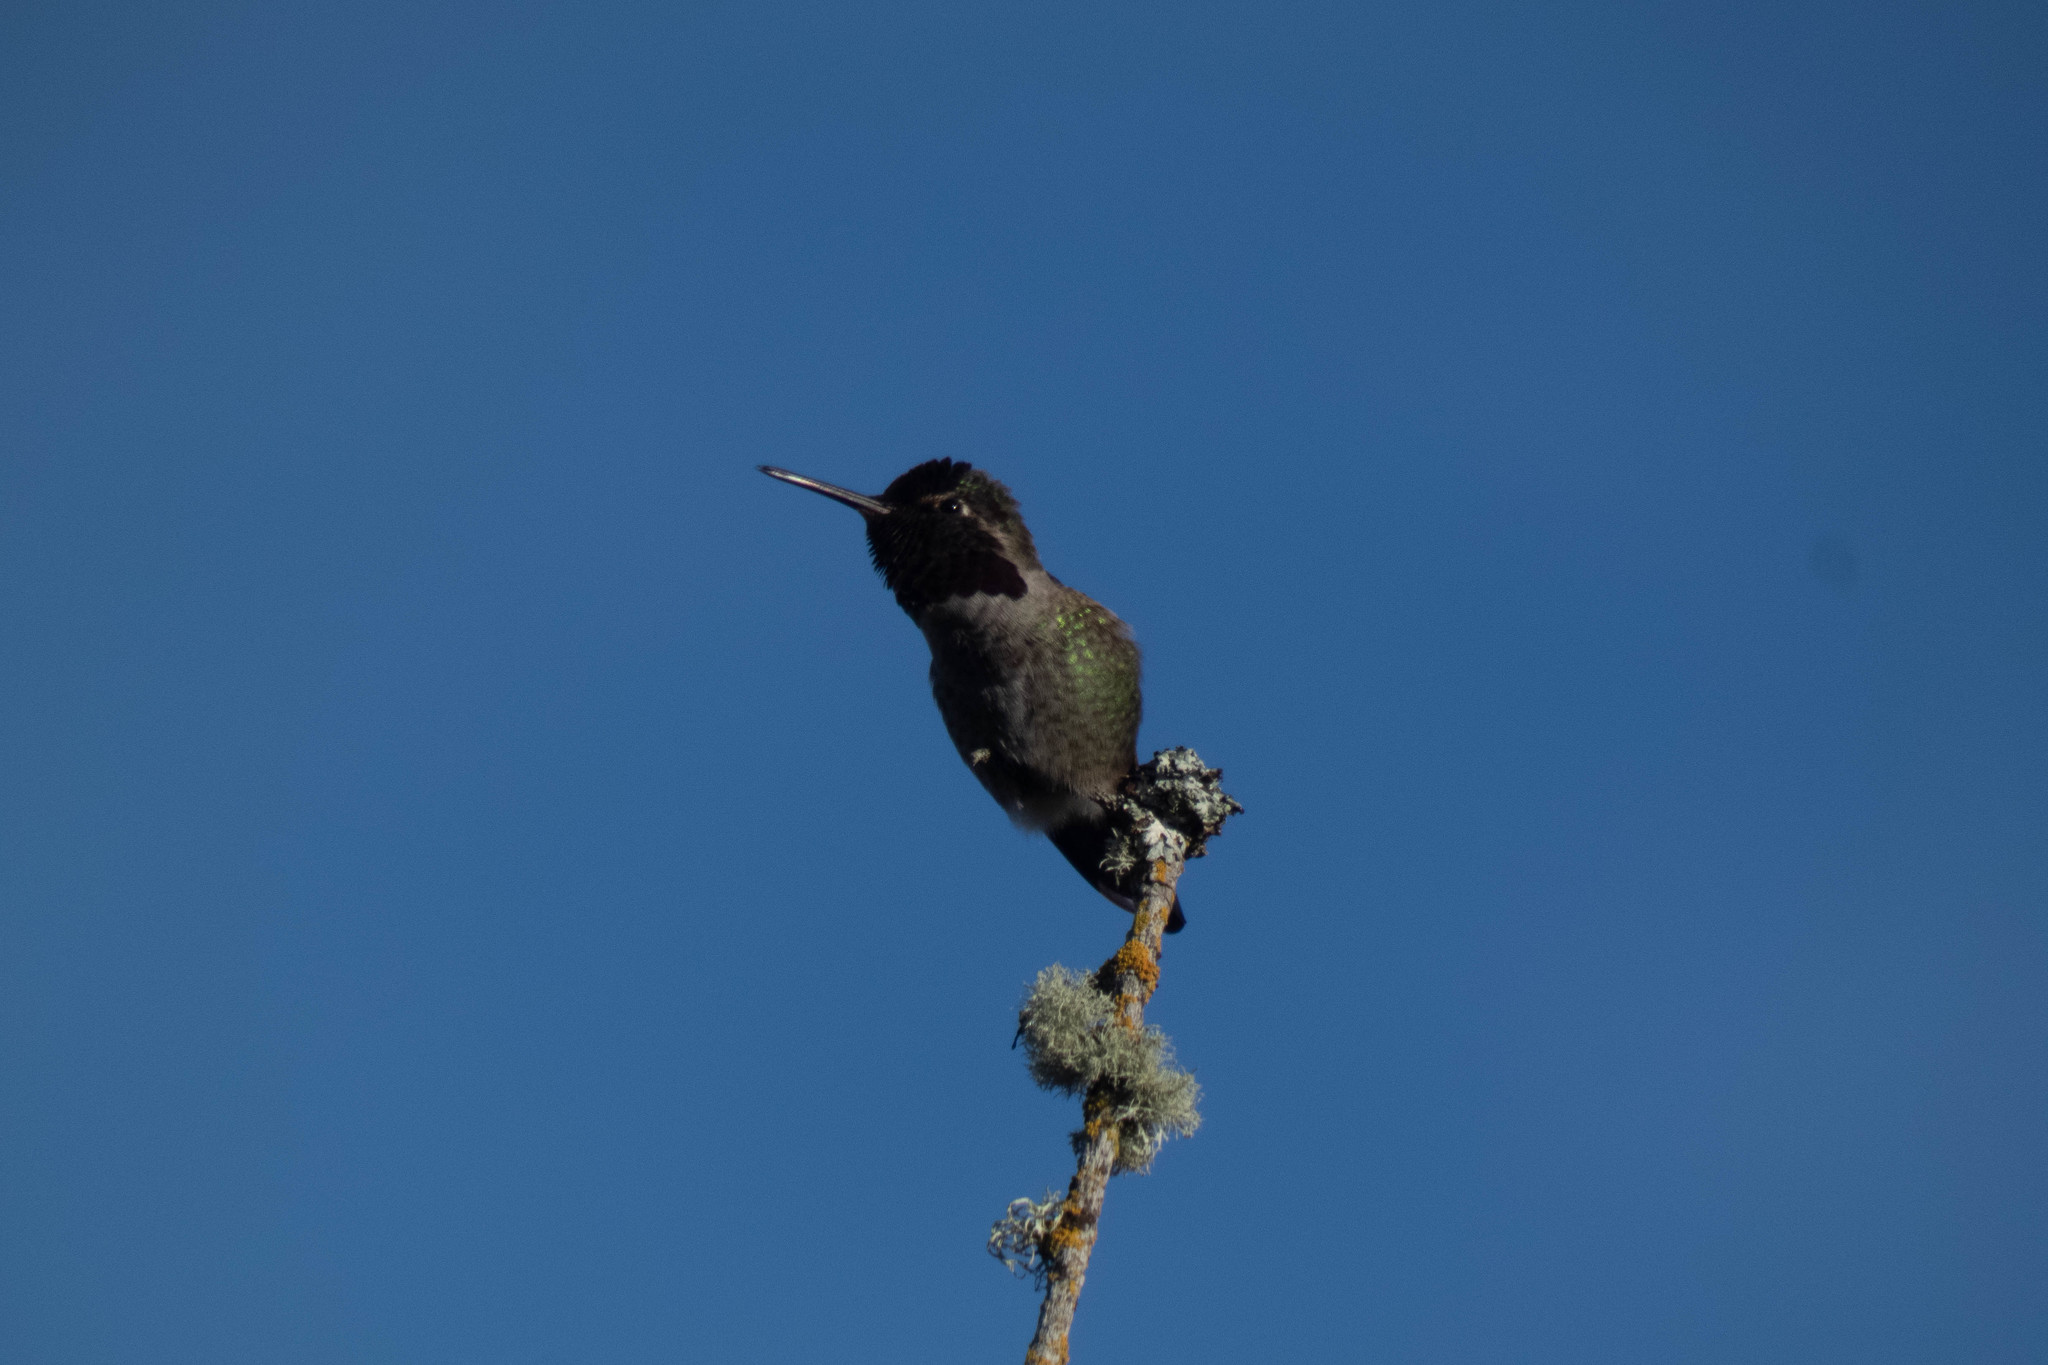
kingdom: Animalia
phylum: Chordata
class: Aves
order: Apodiformes
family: Trochilidae
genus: Calypte
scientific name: Calypte anna
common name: Anna's hummingbird
